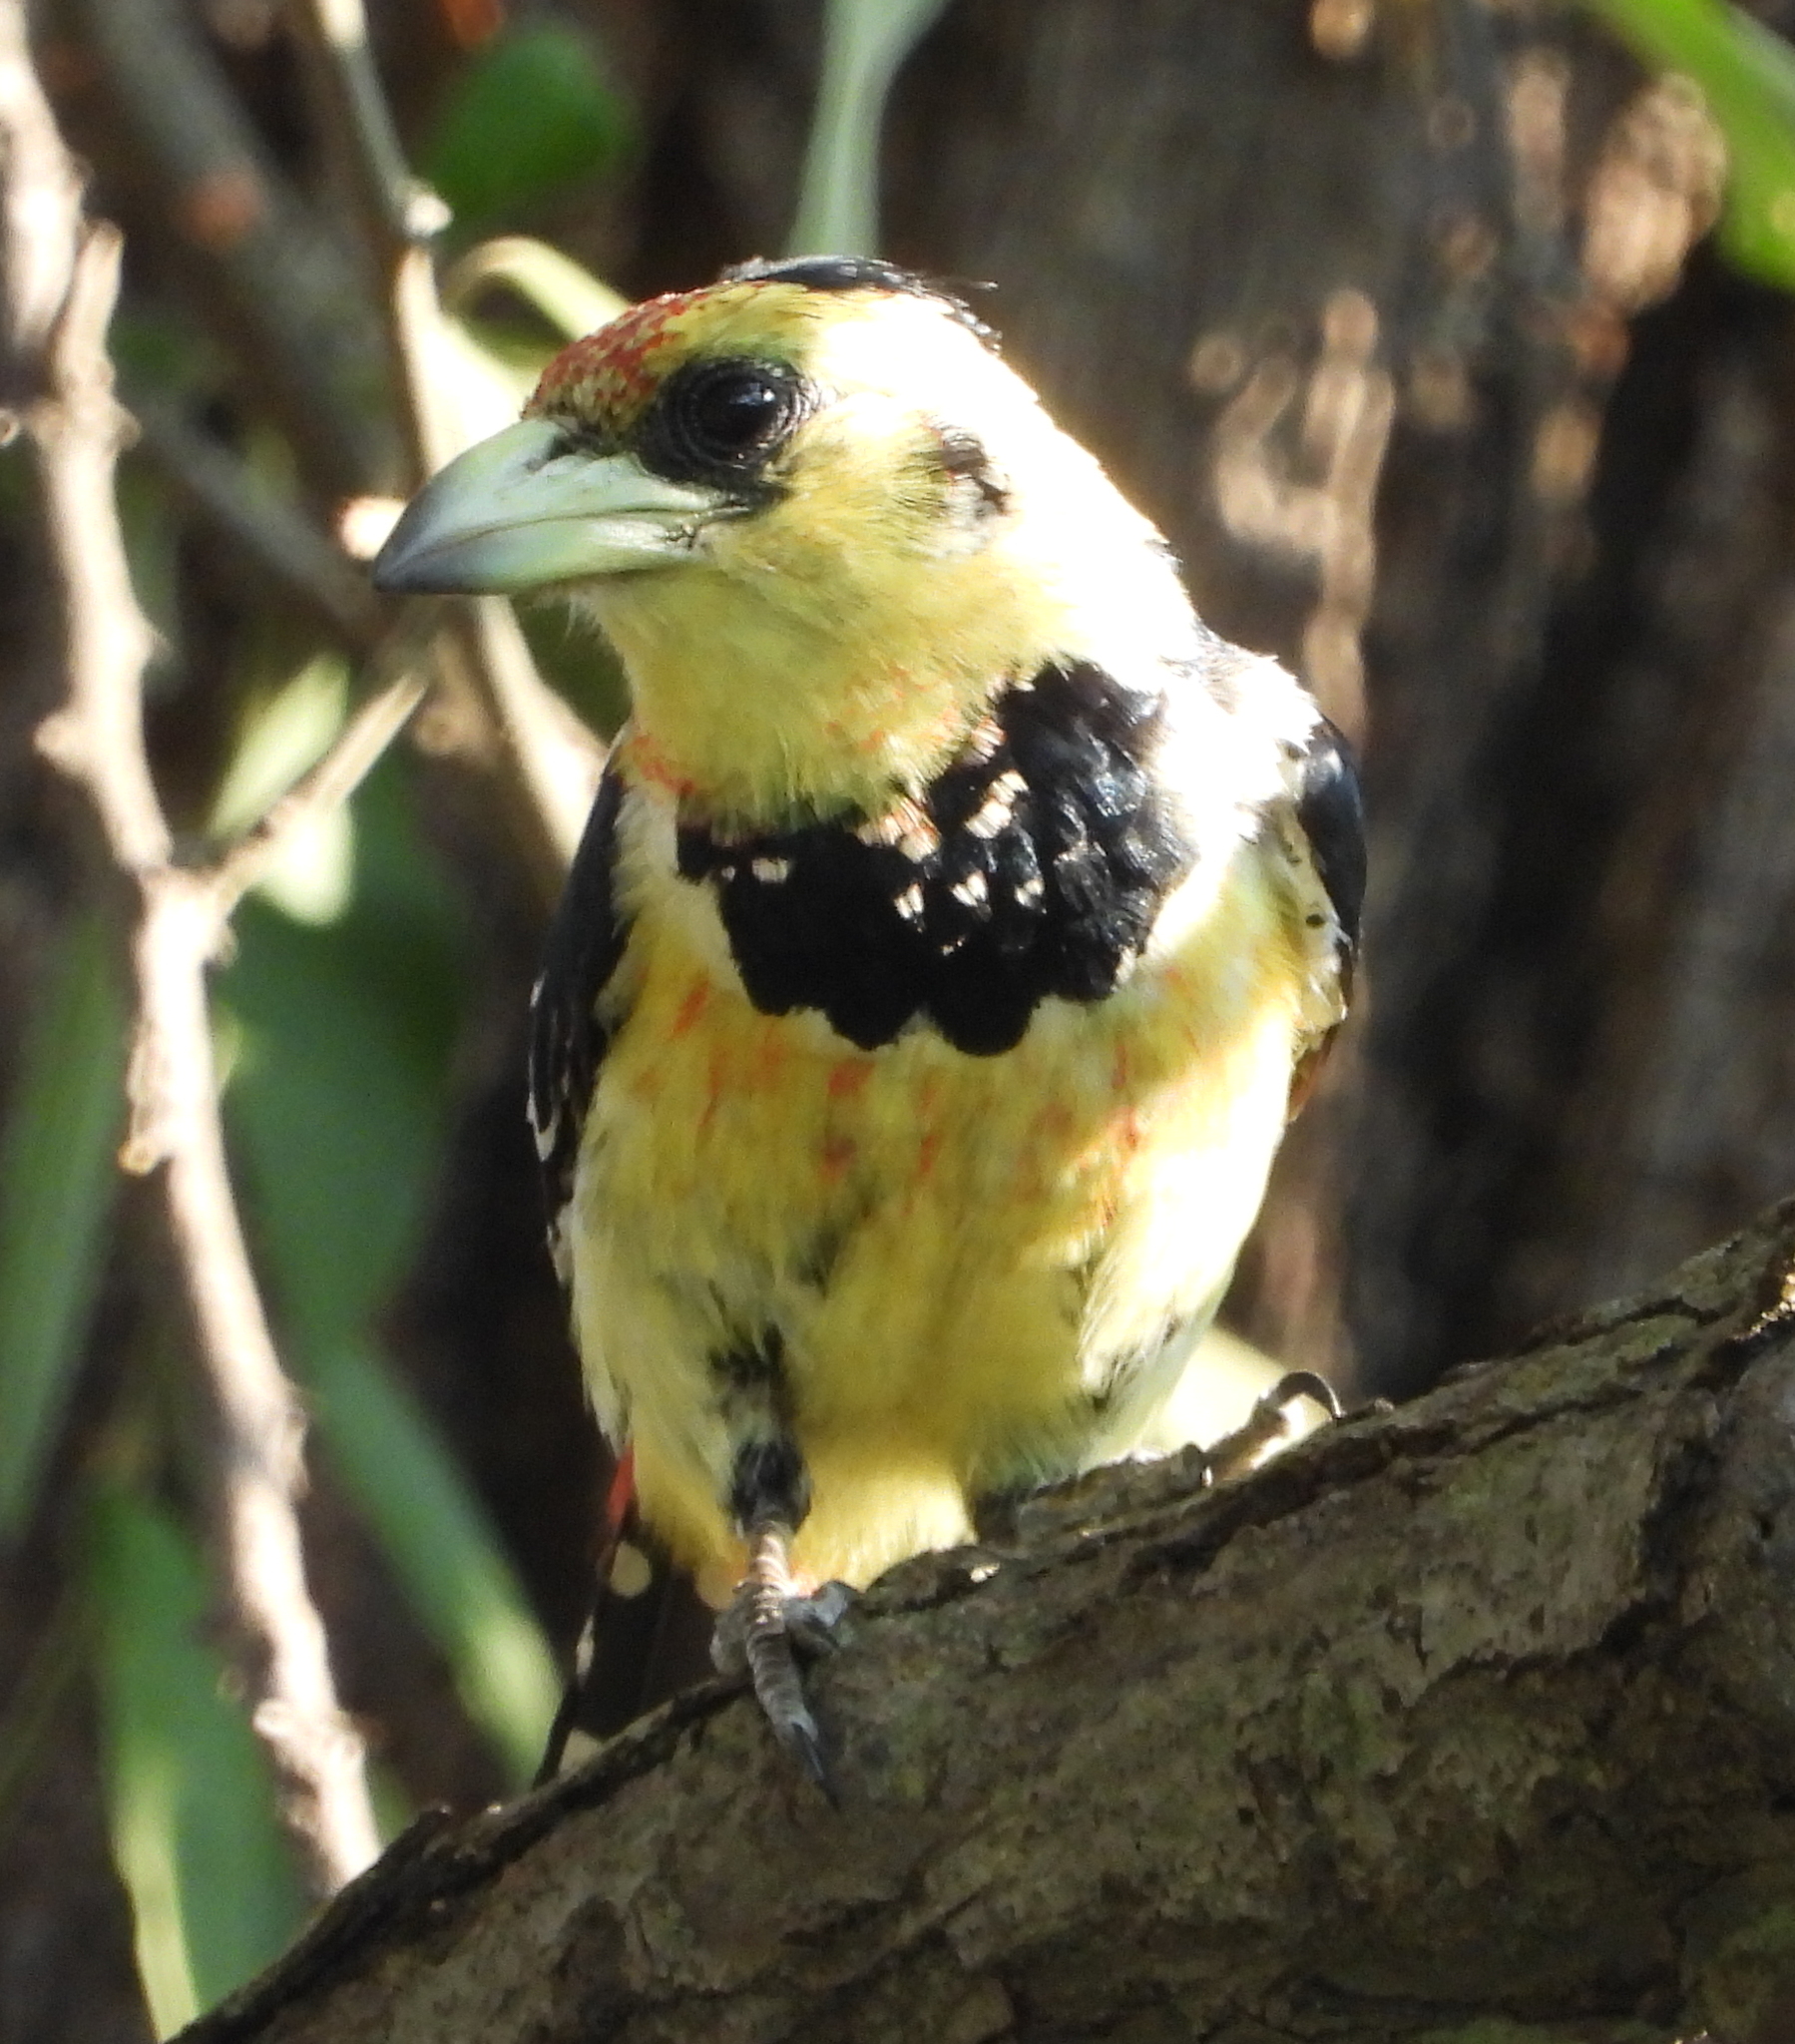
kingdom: Animalia
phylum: Chordata
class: Aves
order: Piciformes
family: Lybiidae
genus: Trachyphonus
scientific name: Trachyphonus vaillantii
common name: Crested barbet
